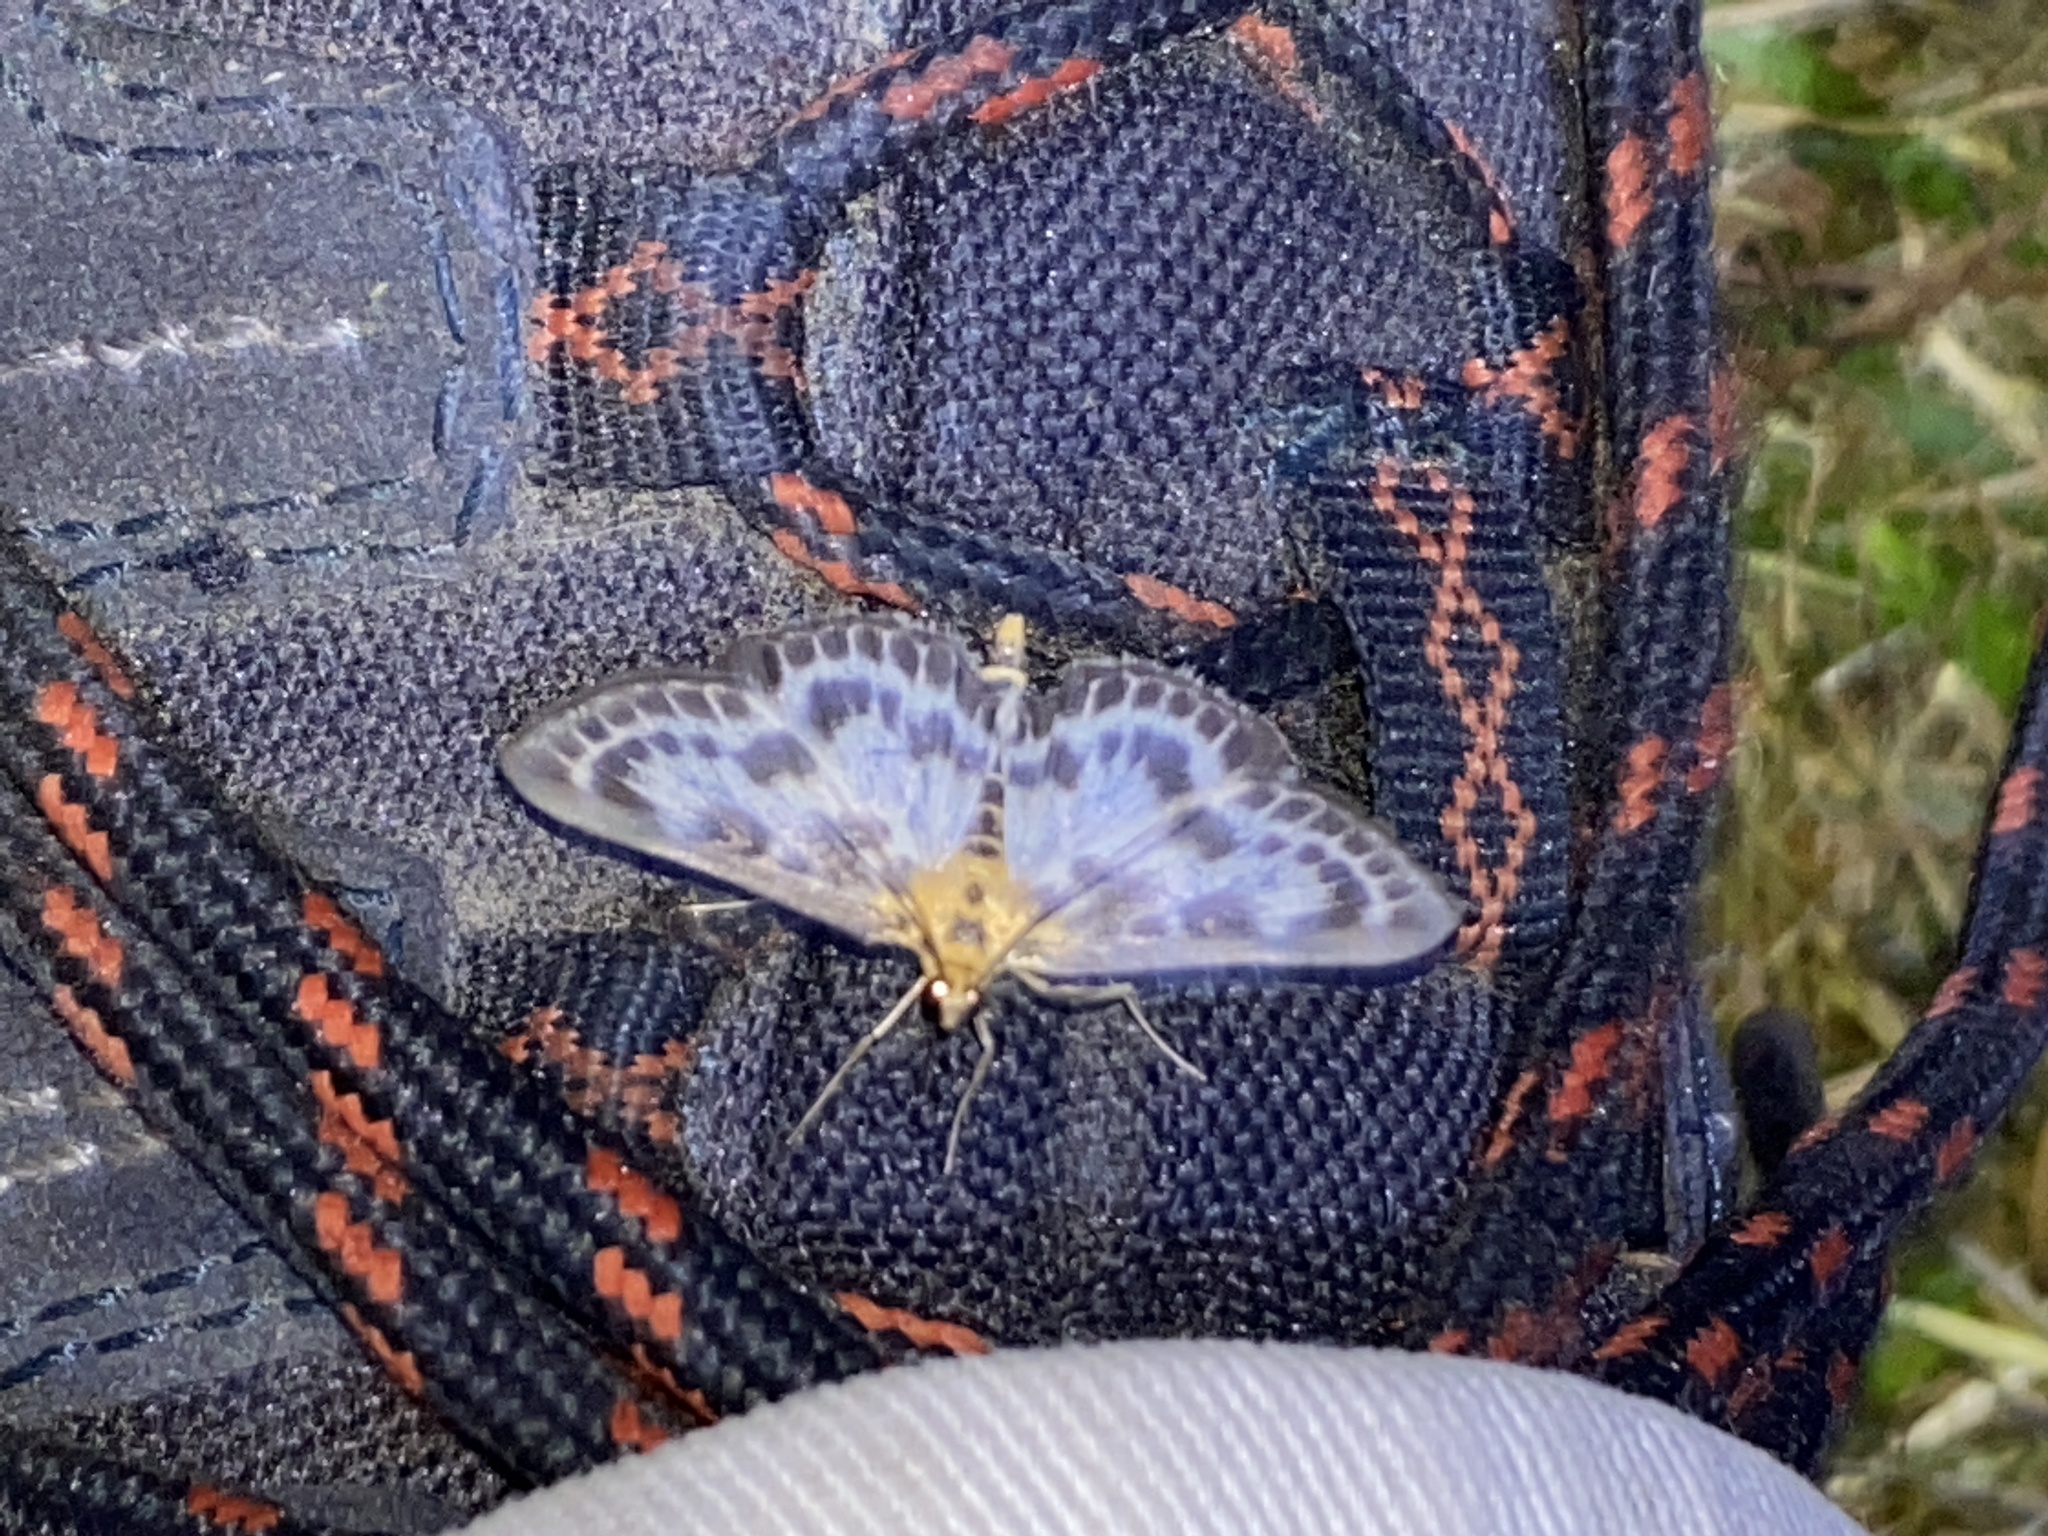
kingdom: Animalia
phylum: Arthropoda
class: Insecta
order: Lepidoptera
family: Crambidae
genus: Anania
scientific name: Anania hortulata
